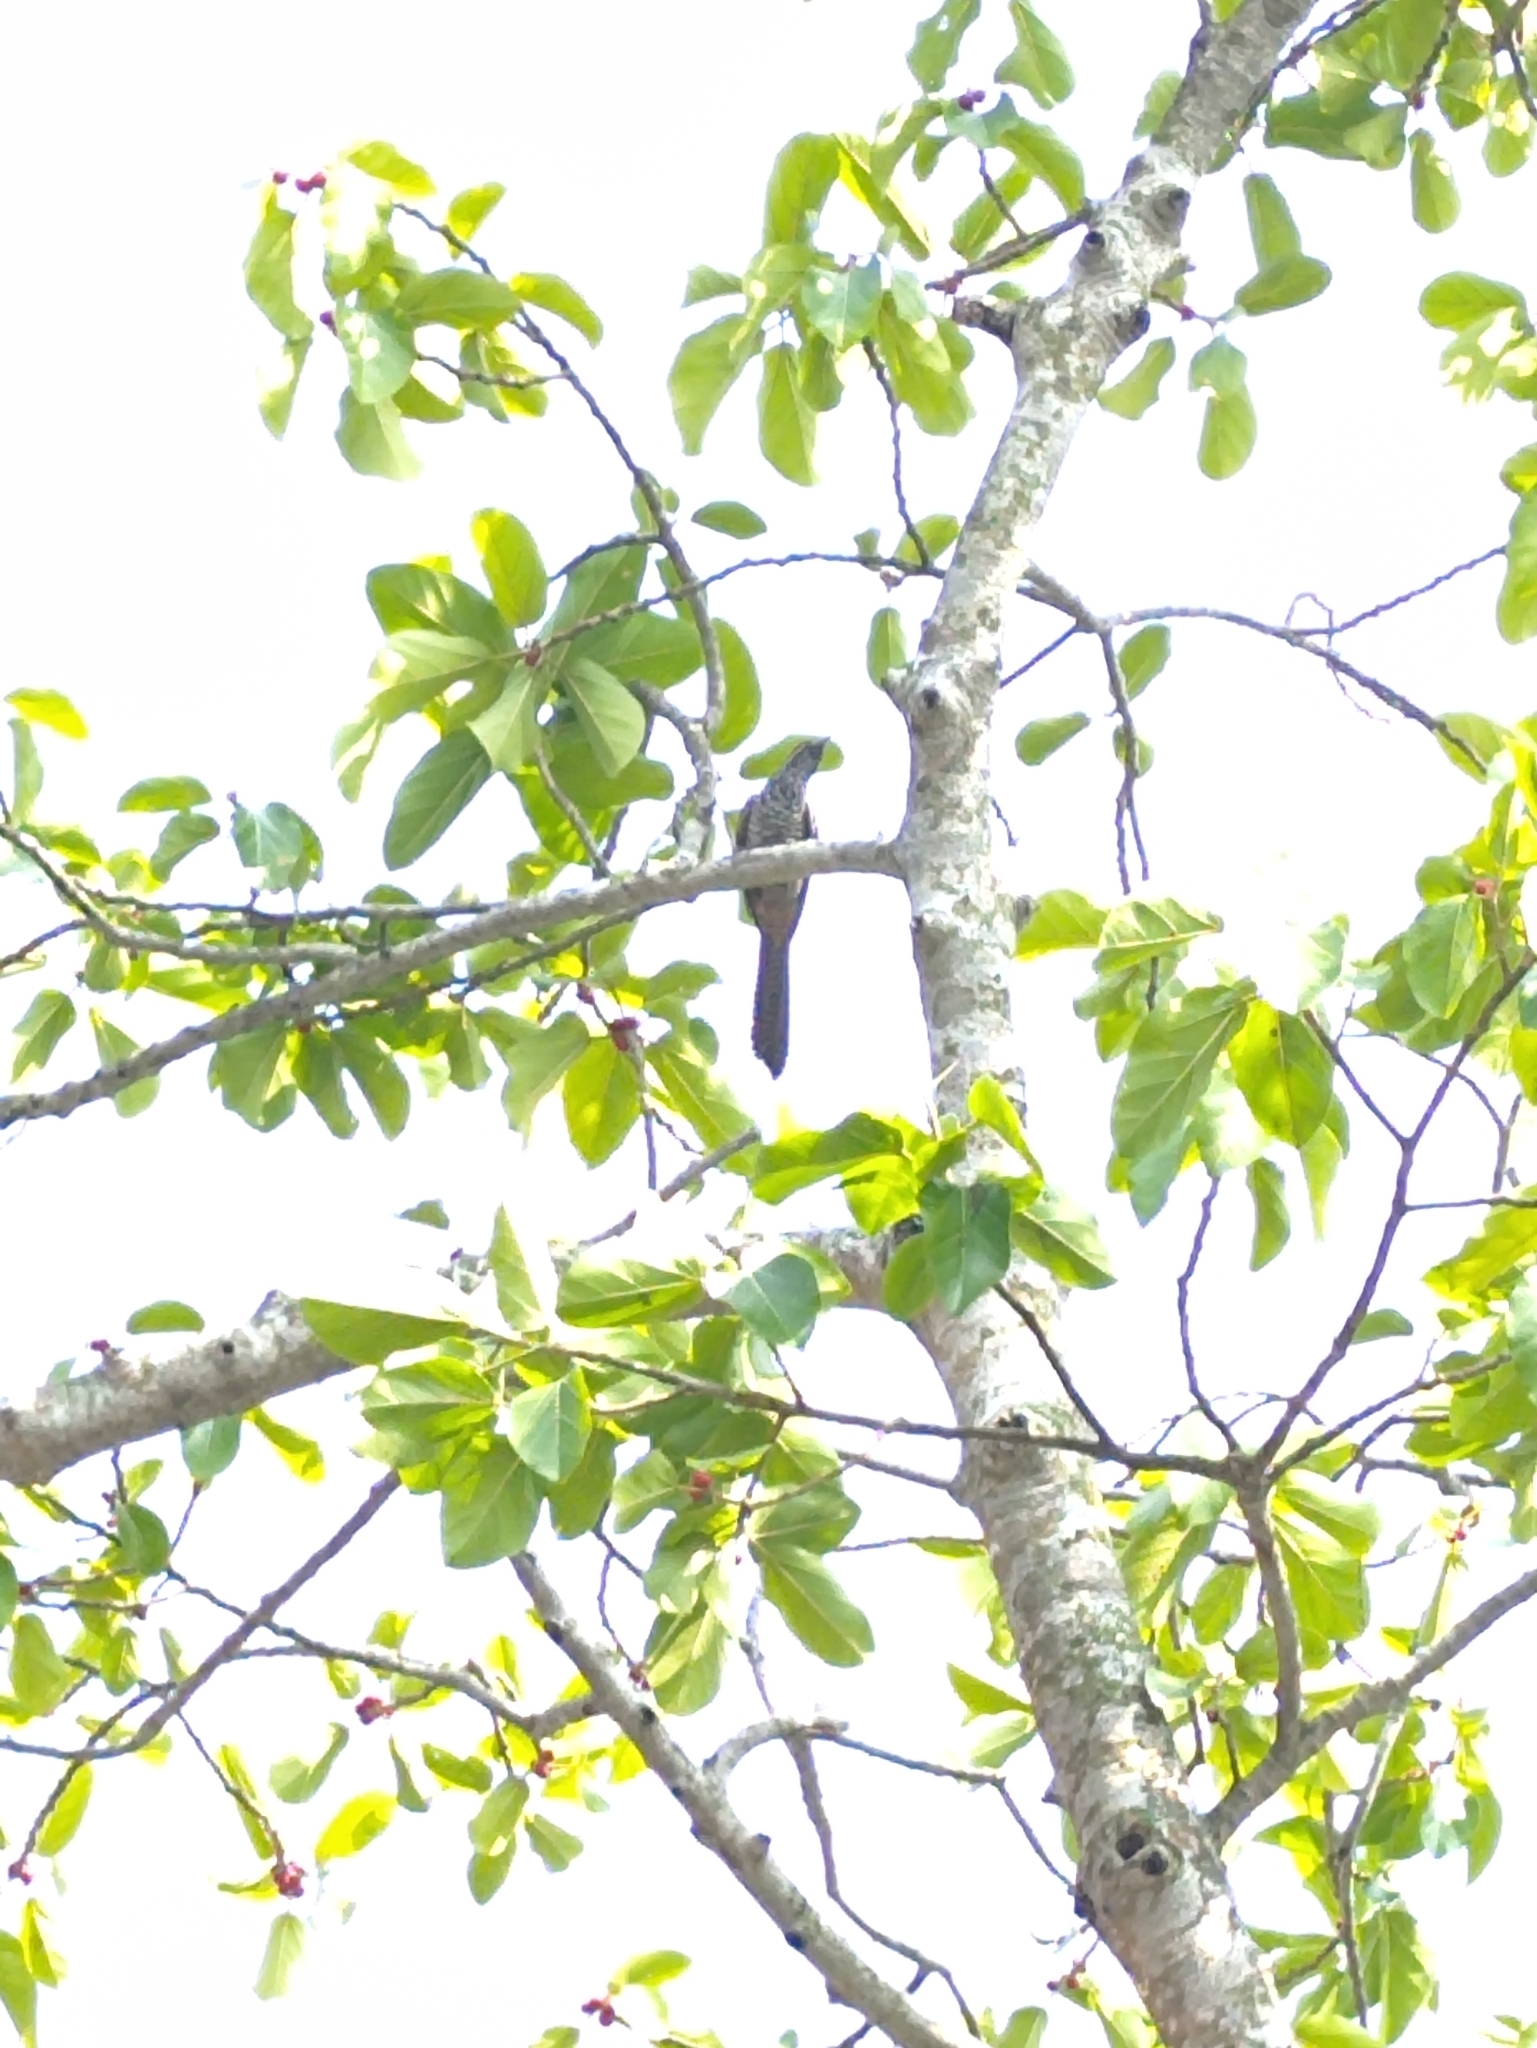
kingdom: Animalia
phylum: Chordata
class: Aves
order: Cuculiformes
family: Cuculidae
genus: Eudynamys
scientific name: Eudynamys scolopaceus
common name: Asian koel
